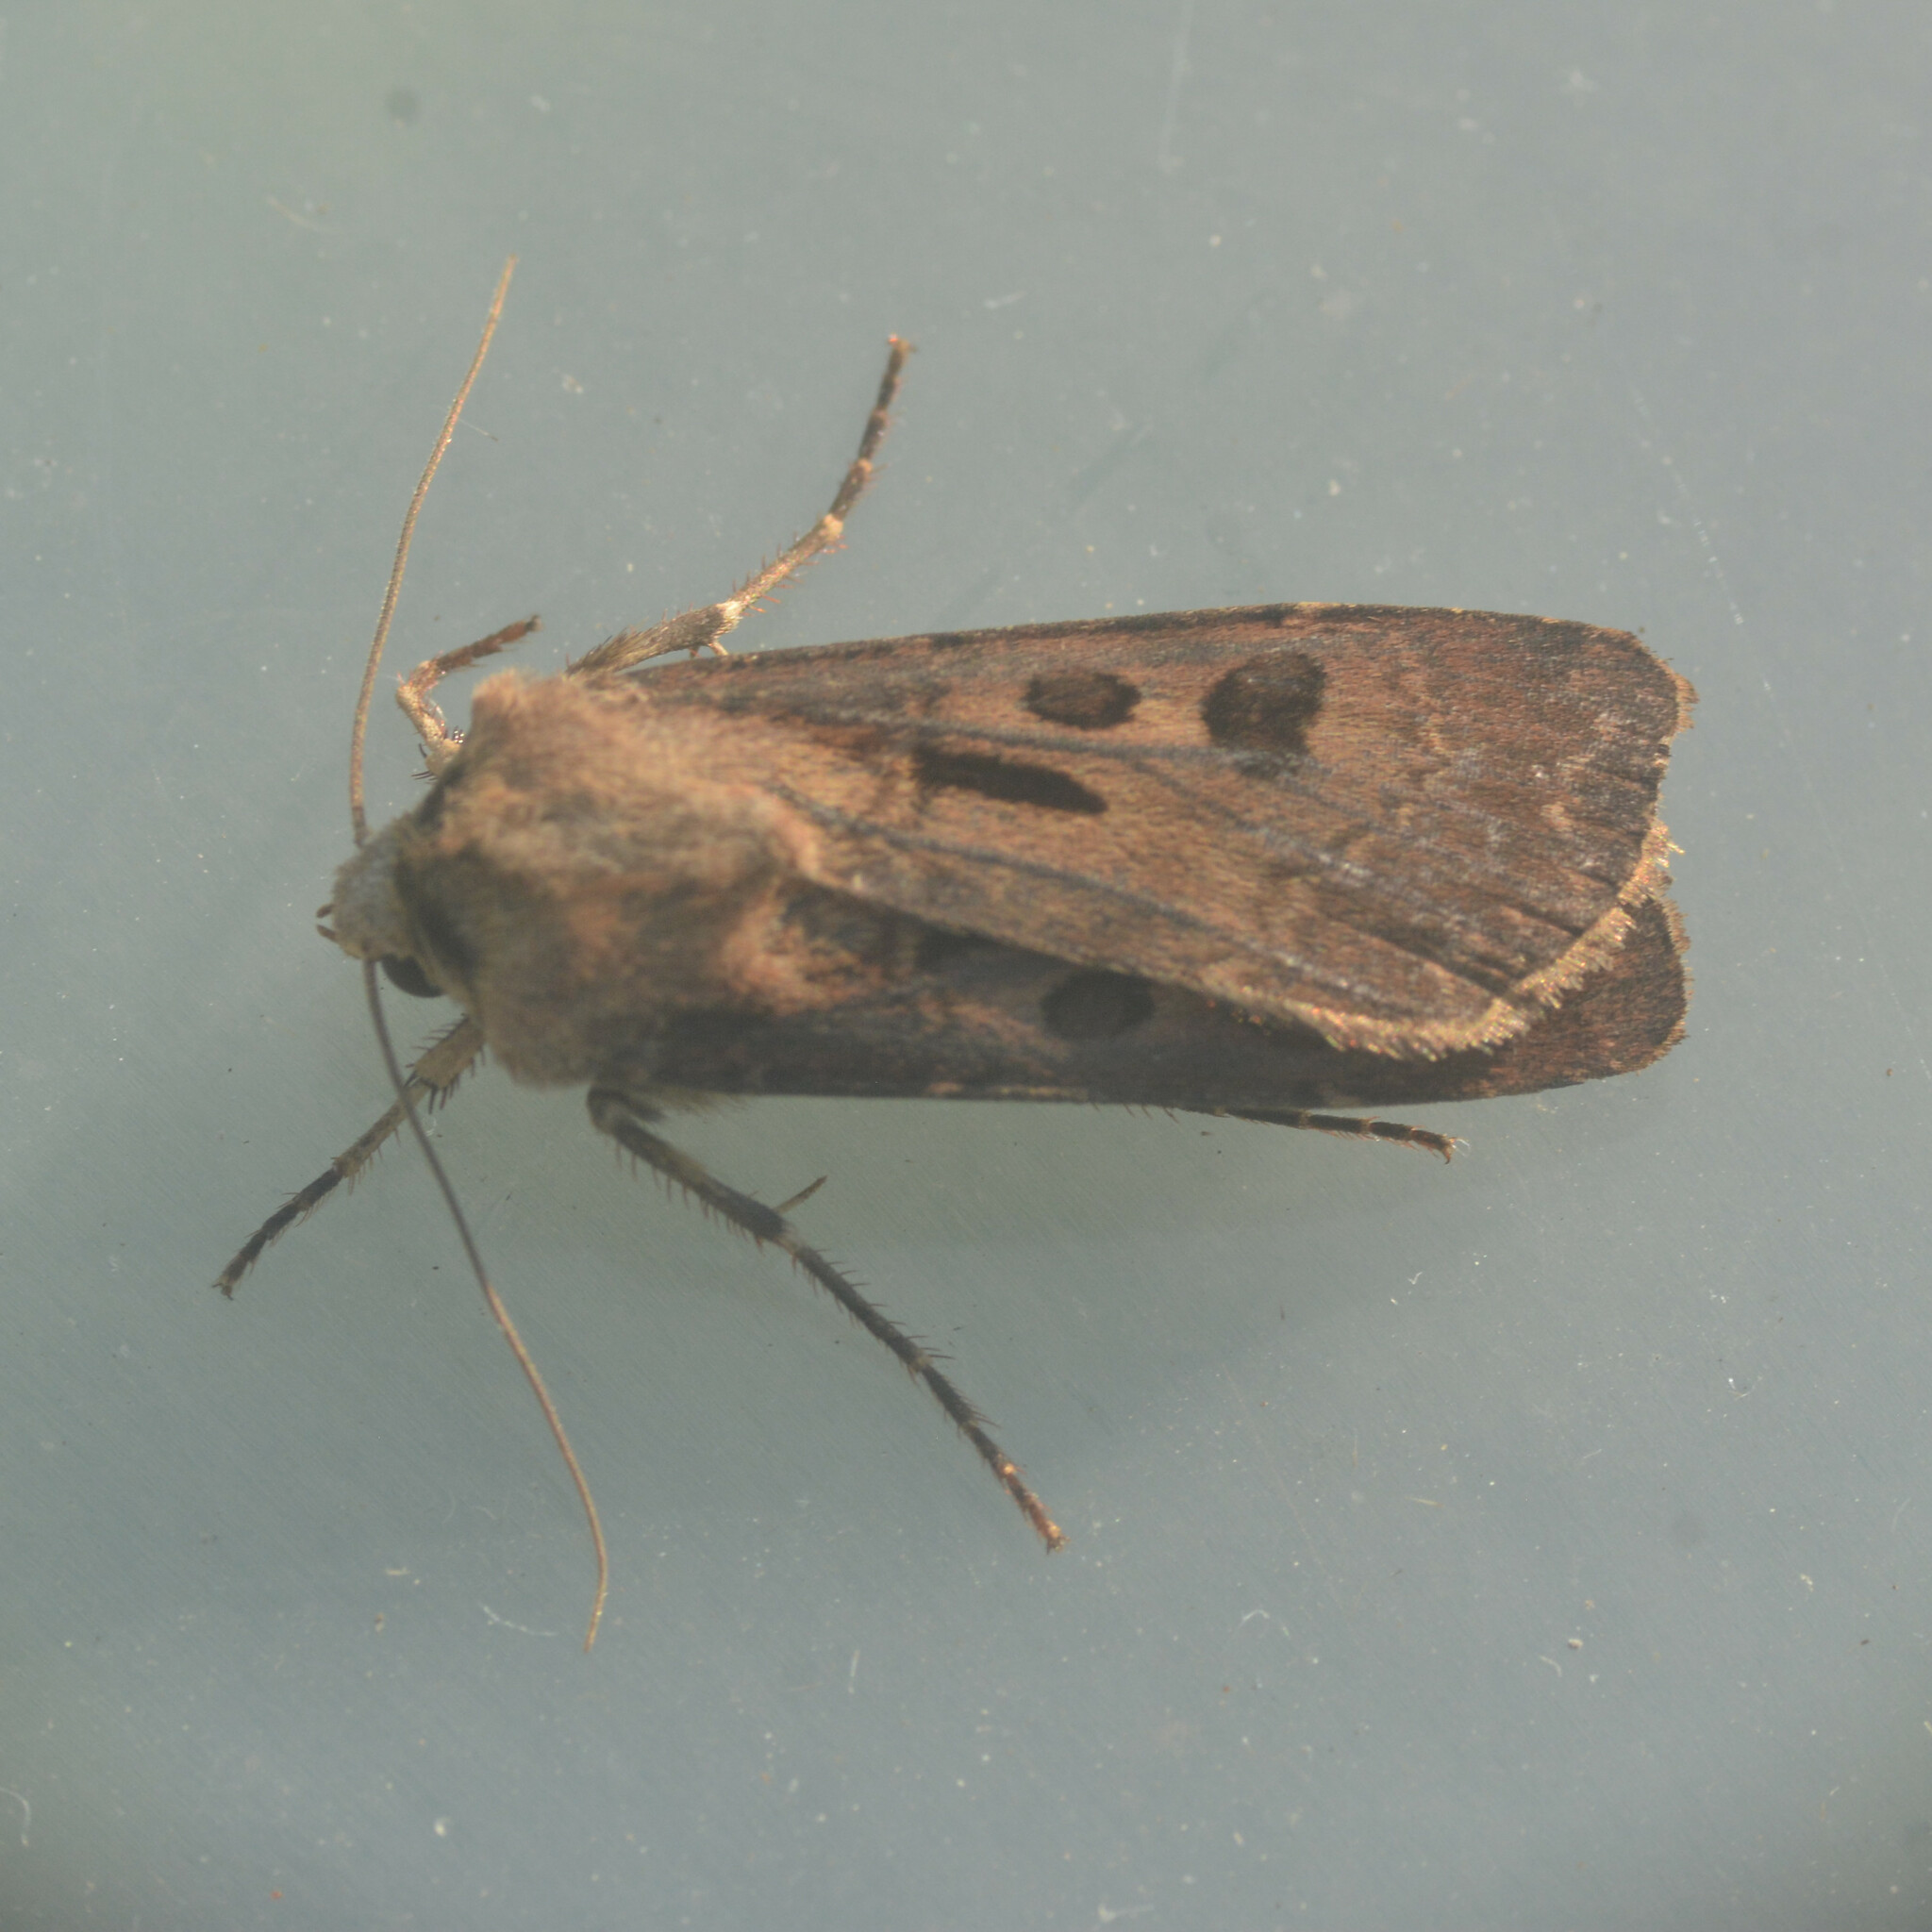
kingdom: Animalia
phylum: Arthropoda
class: Insecta
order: Lepidoptera
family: Noctuidae
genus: Agrotis
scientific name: Agrotis exclamationis
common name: Heart and dart
